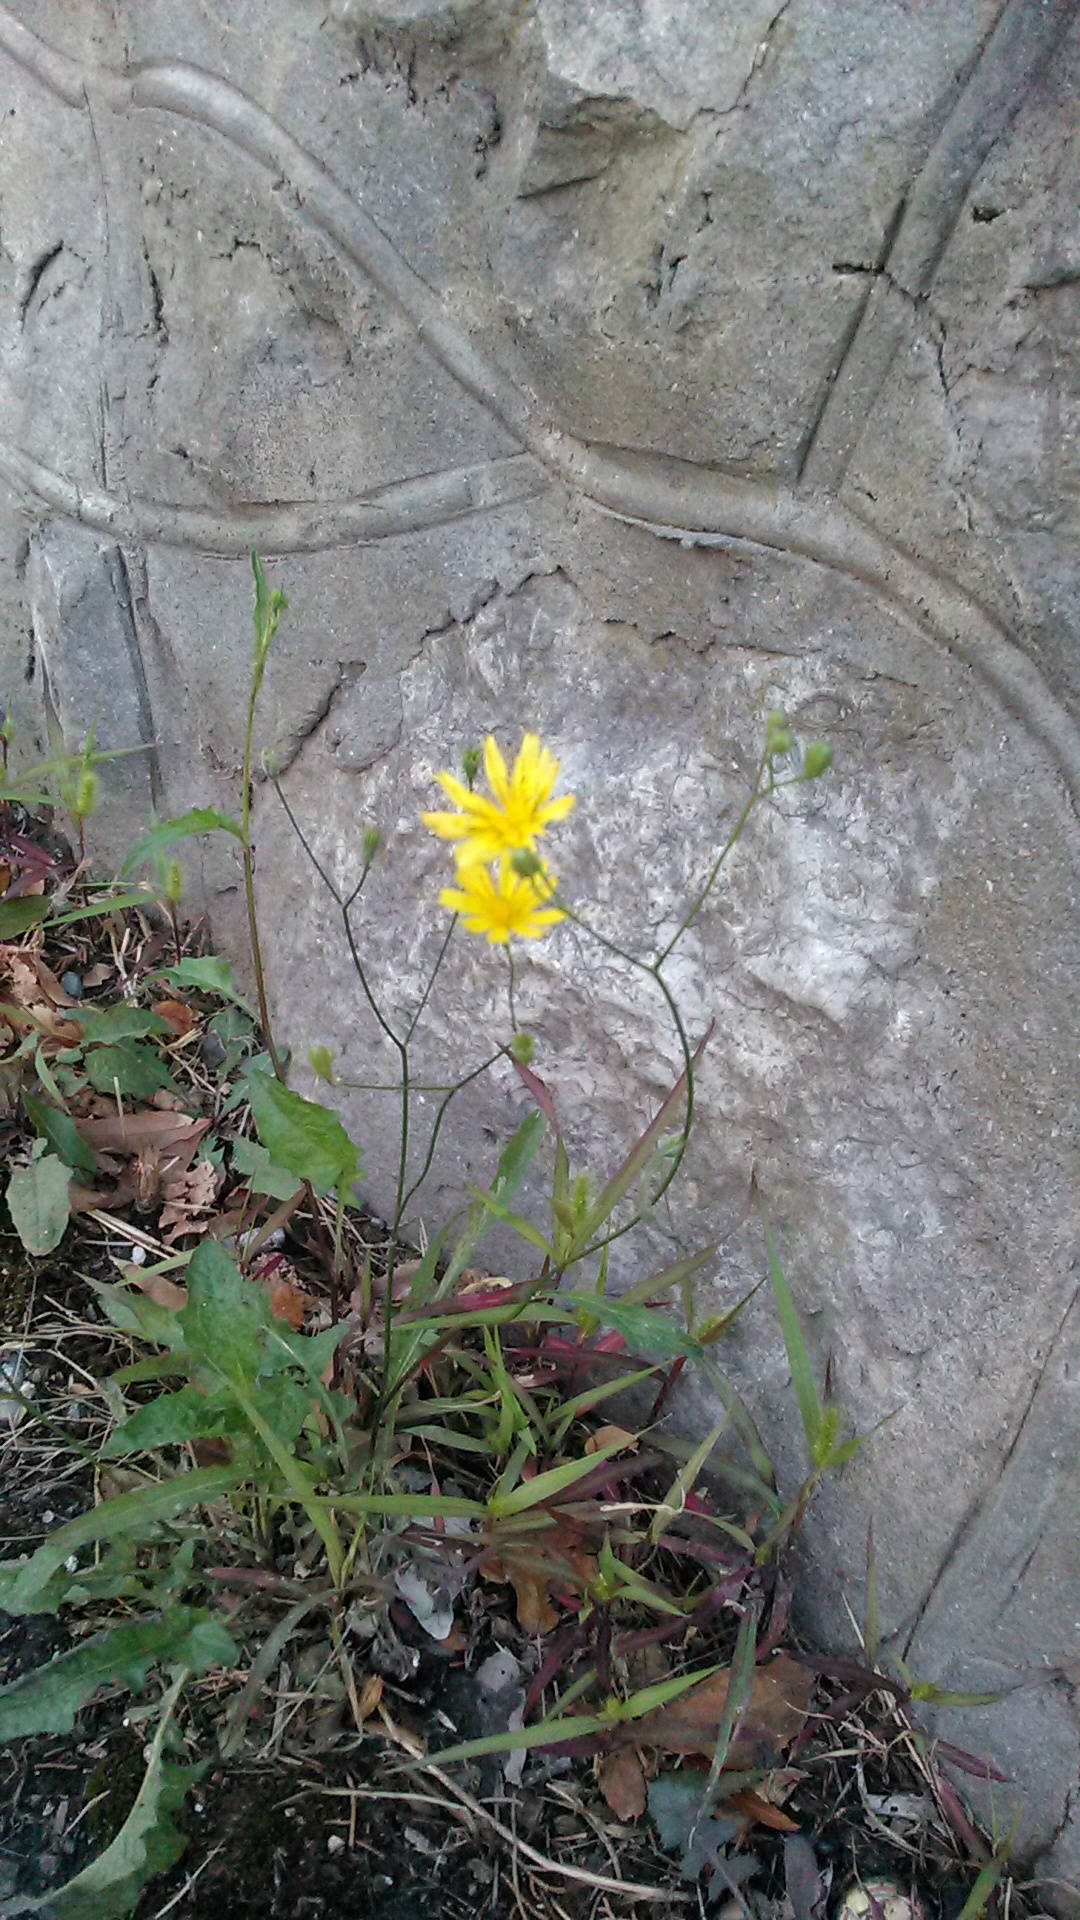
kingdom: Plantae
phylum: Tracheophyta
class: Magnoliopsida
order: Asterales
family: Asteraceae
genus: Lapsana
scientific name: Lapsana communis
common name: Nipplewort
